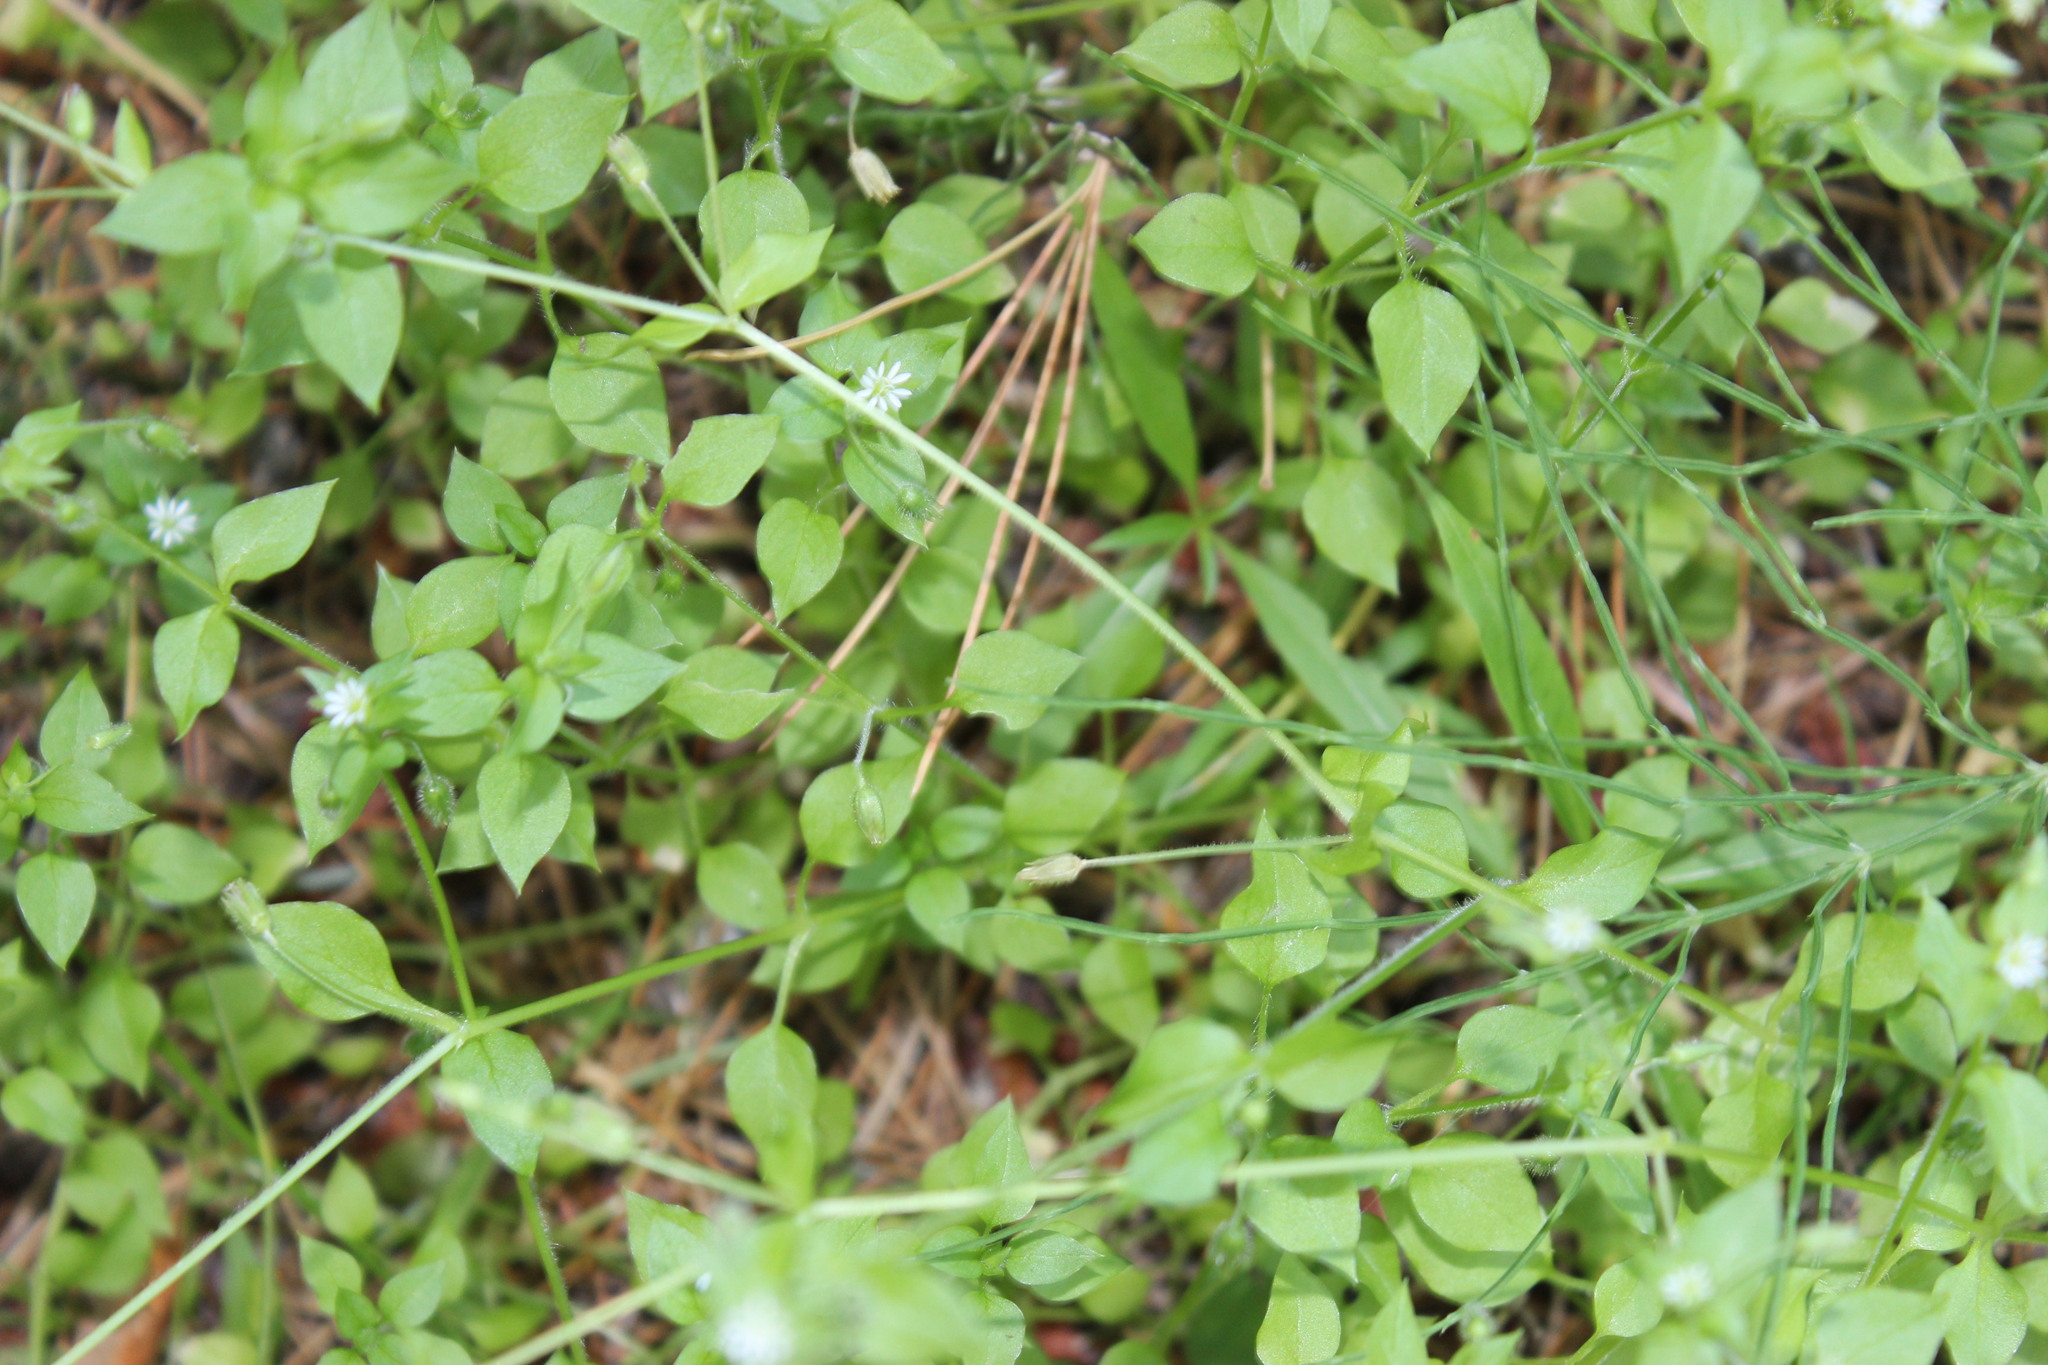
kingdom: Plantae
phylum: Tracheophyta
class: Magnoliopsida
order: Caryophyllales
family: Caryophyllaceae
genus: Stellaria
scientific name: Stellaria media
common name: Common chickweed
